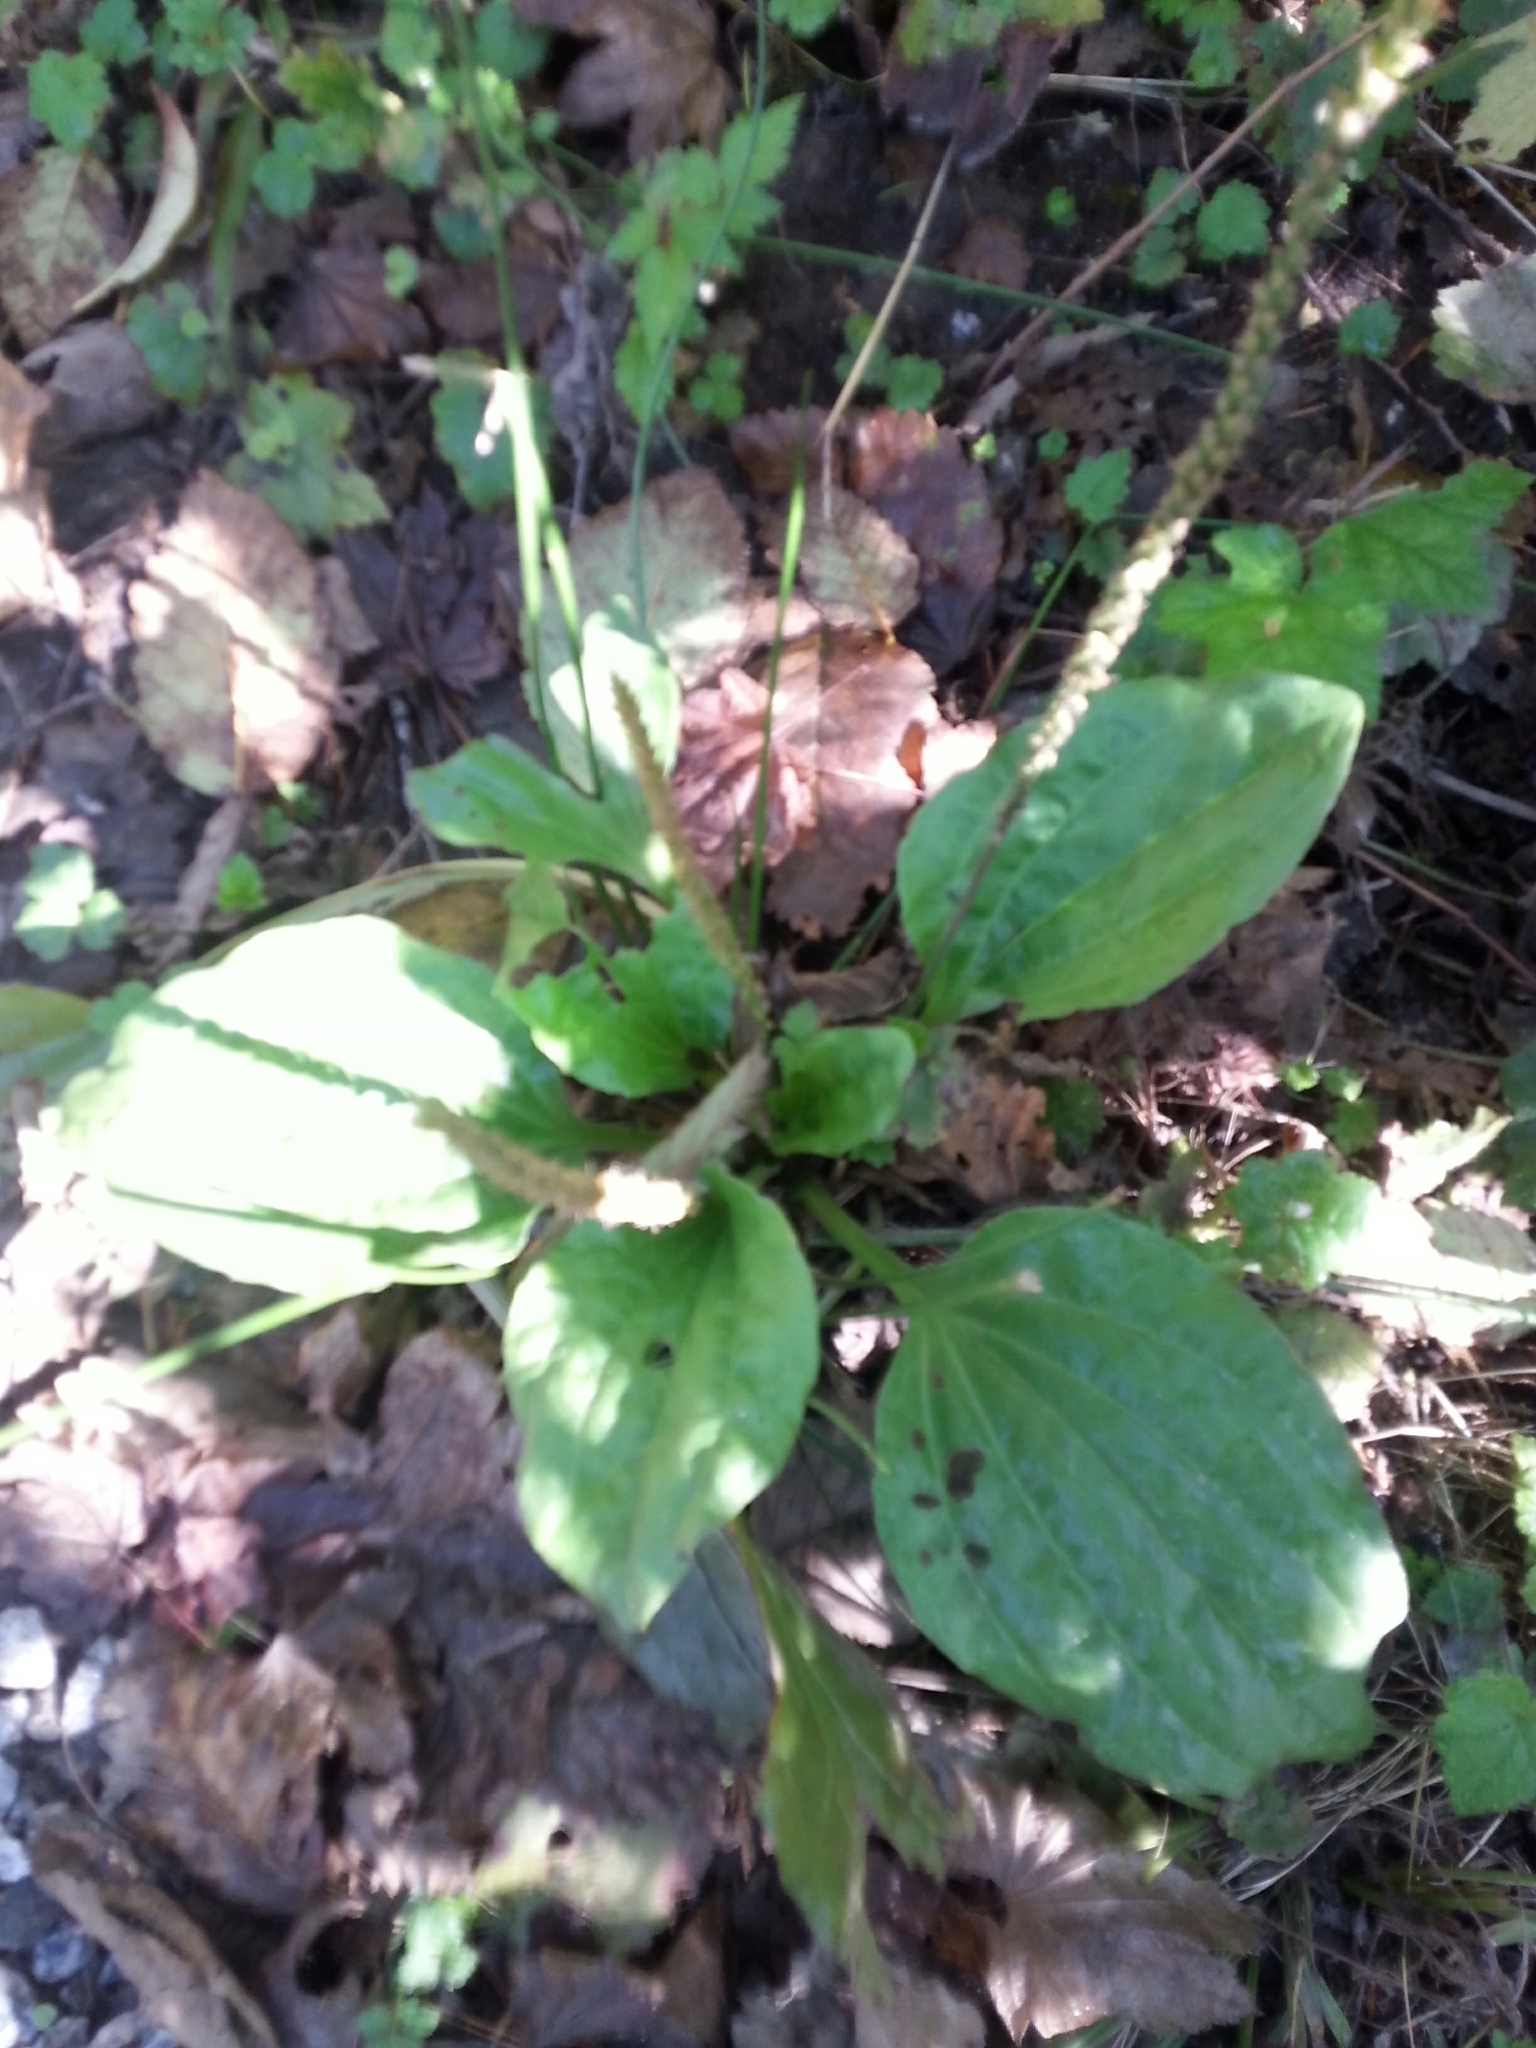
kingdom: Plantae
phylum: Tracheophyta
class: Magnoliopsida
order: Lamiales
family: Plantaginaceae
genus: Plantago
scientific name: Plantago major
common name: Common plantain
